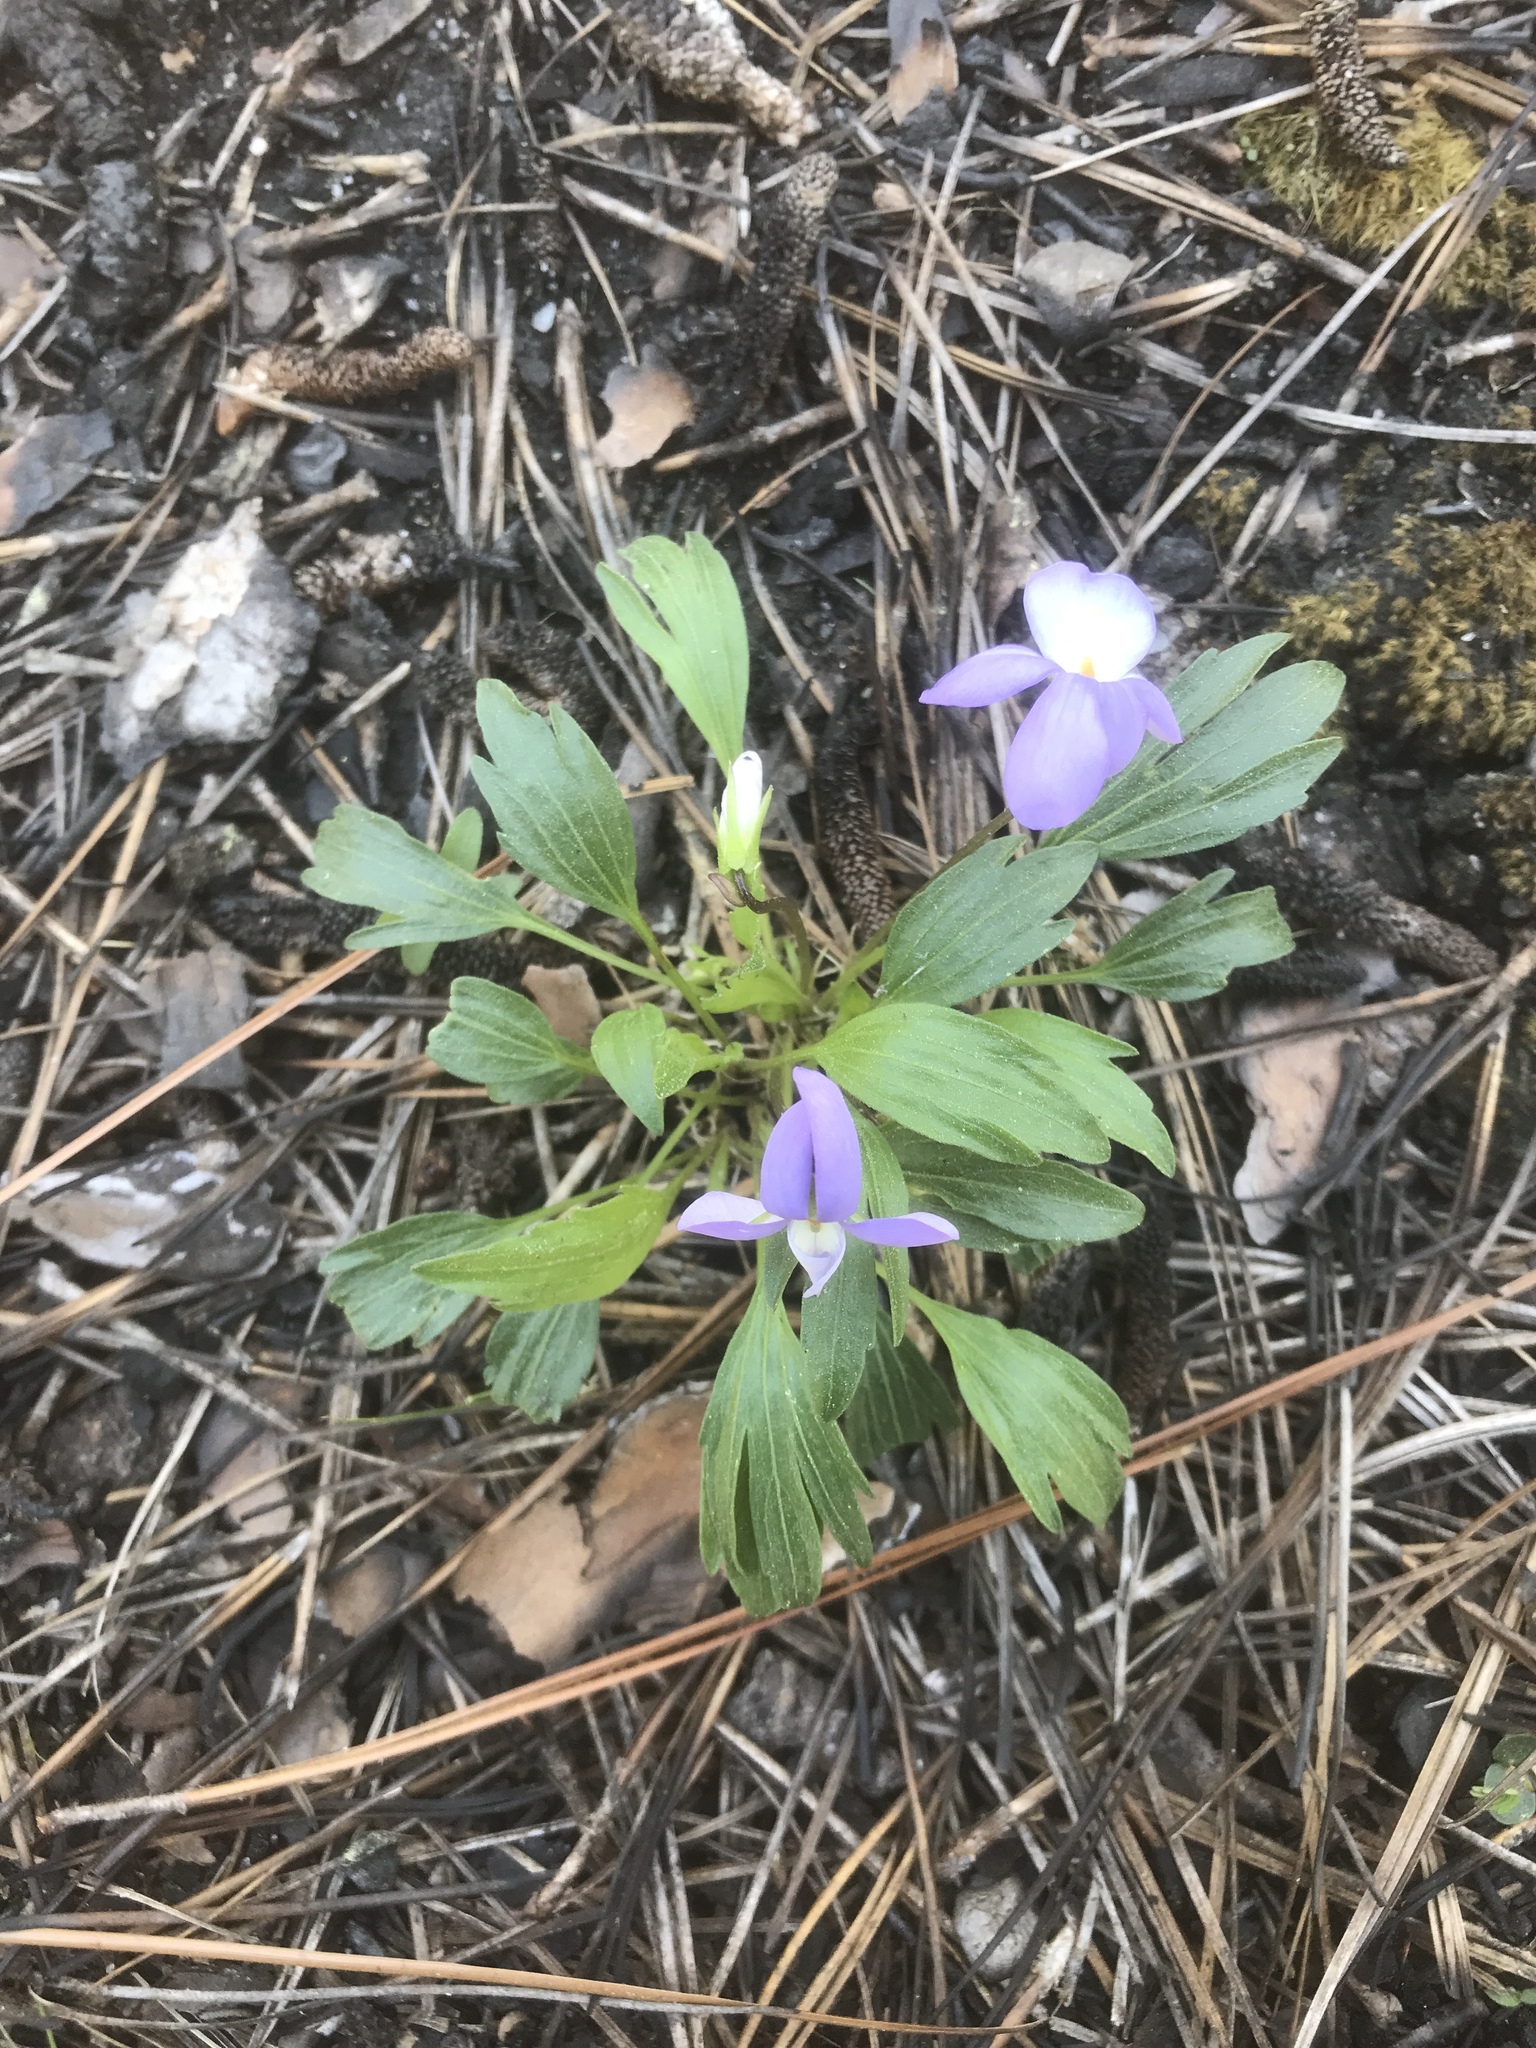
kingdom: Plantae
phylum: Tracheophyta
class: Magnoliopsida
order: Malpighiales
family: Violaceae
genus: Viola
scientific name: Viola pedata
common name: Pansy violet
